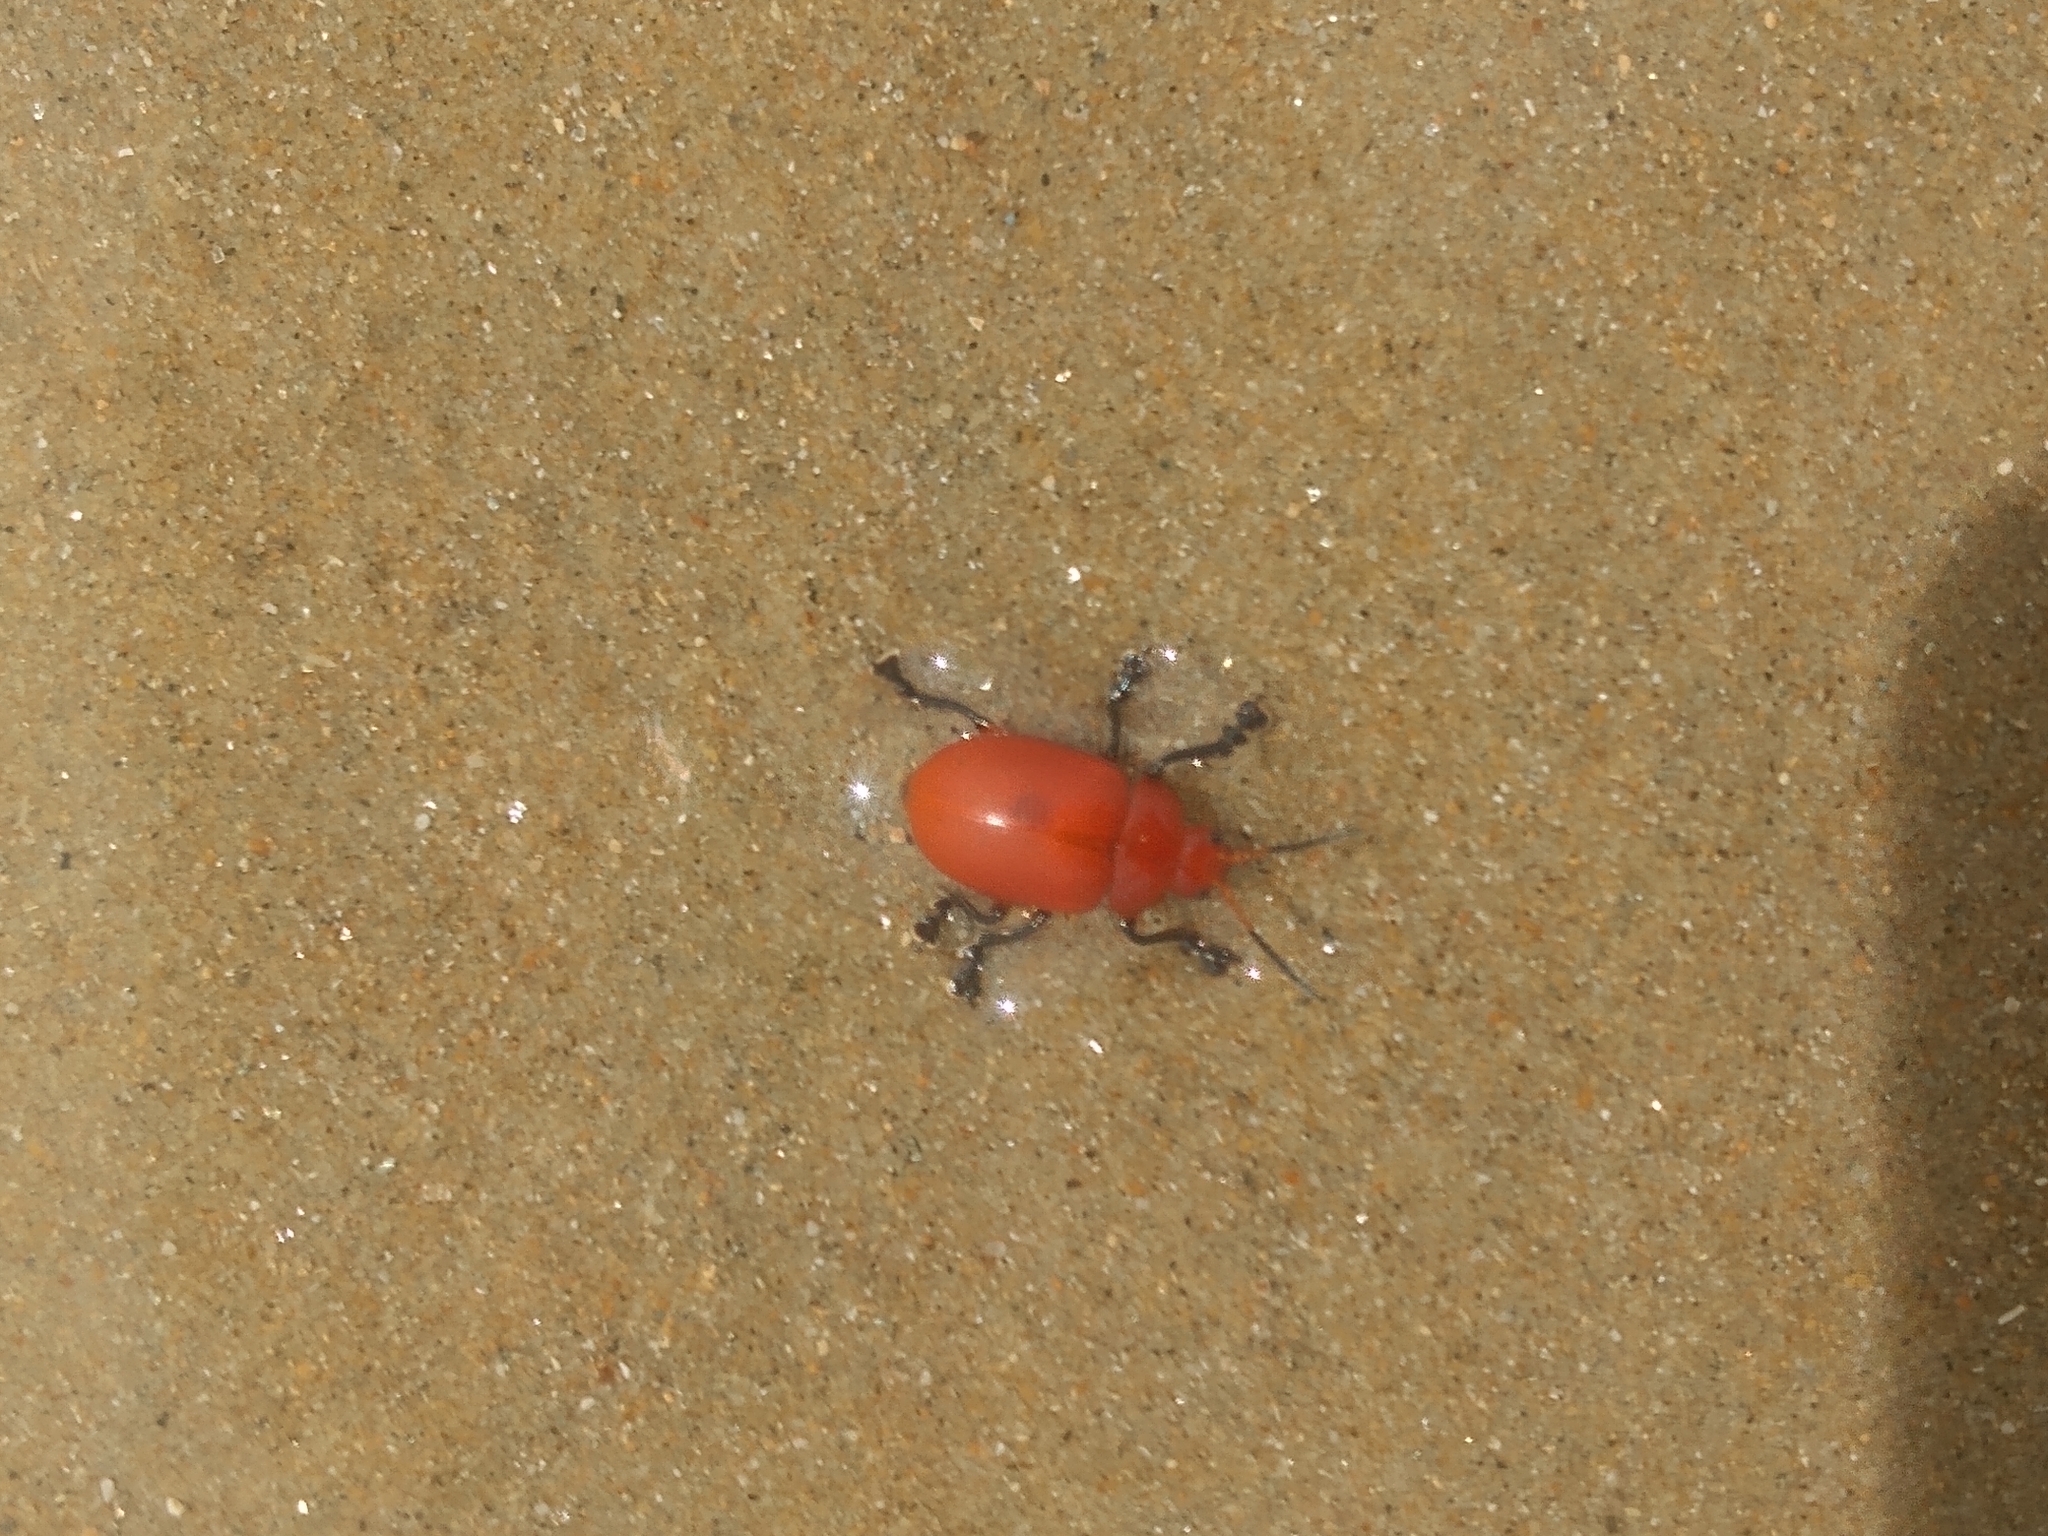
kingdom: Animalia
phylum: Arthropoda
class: Insecta
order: Coleoptera
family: Chrysomelidae
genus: Crimissa
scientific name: Crimissa cruralis
